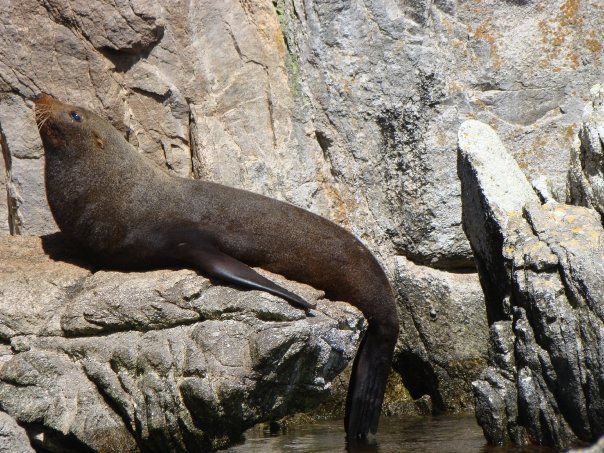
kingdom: Animalia
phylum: Chordata
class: Mammalia
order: Carnivora
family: Otariidae
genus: Arctocephalus
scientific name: Arctocephalus forsteri
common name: New zealand fur seal
